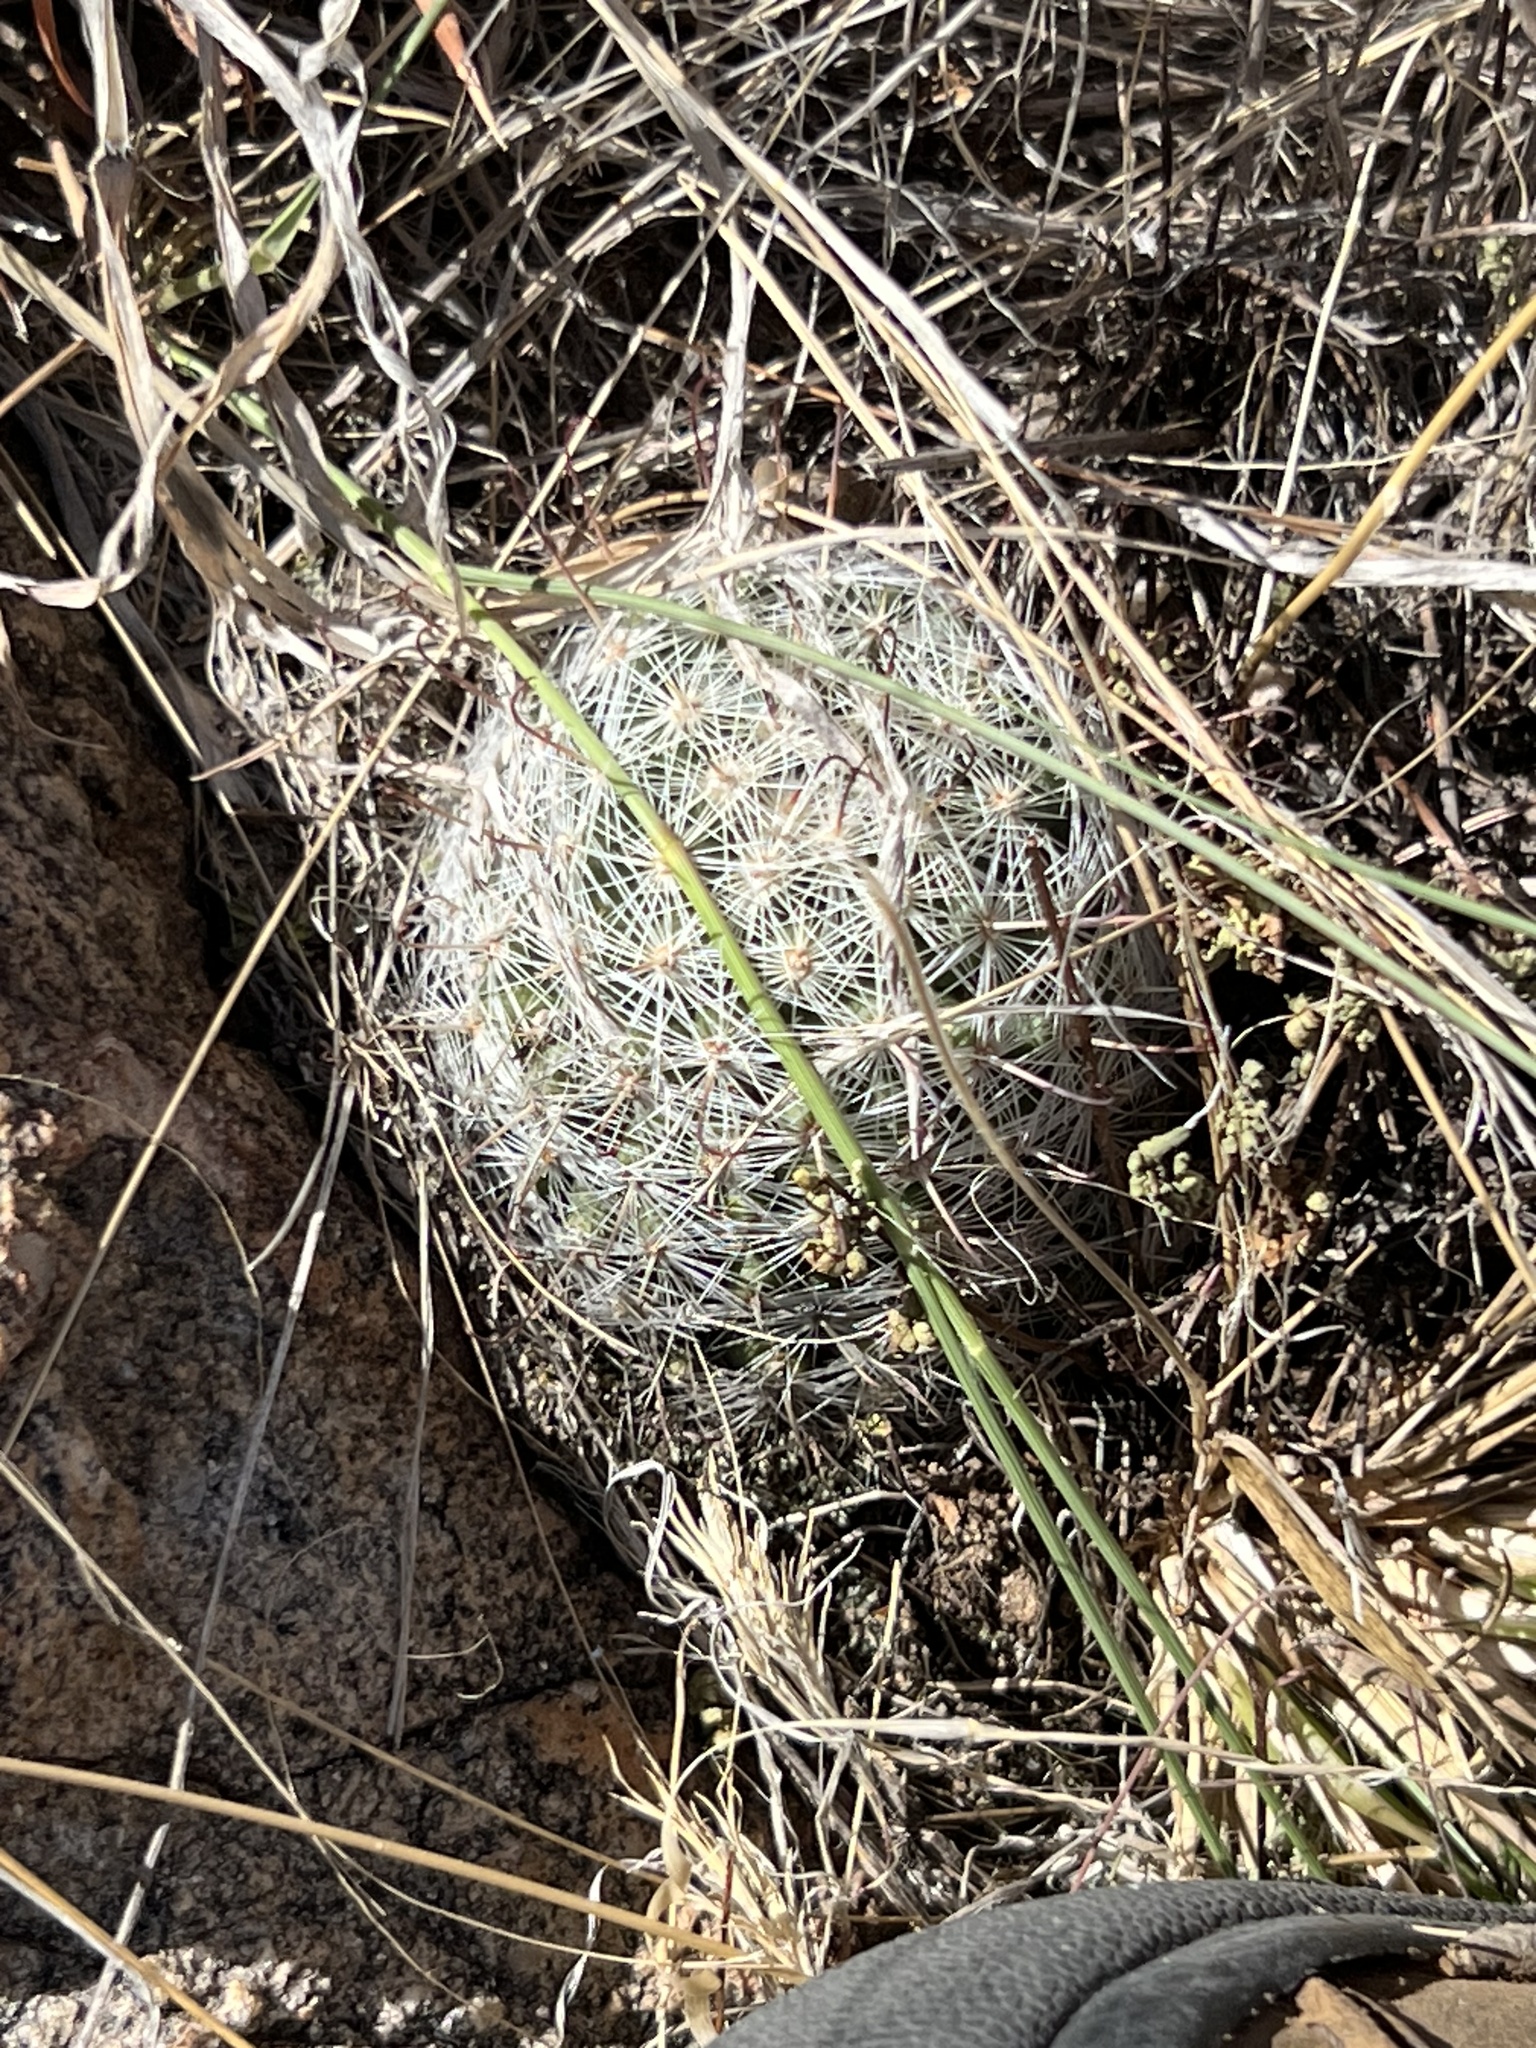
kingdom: Plantae
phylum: Tracheophyta
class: Magnoliopsida
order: Caryophyllales
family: Cactaceae
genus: Cochemiea
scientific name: Cochemiea grahamii
